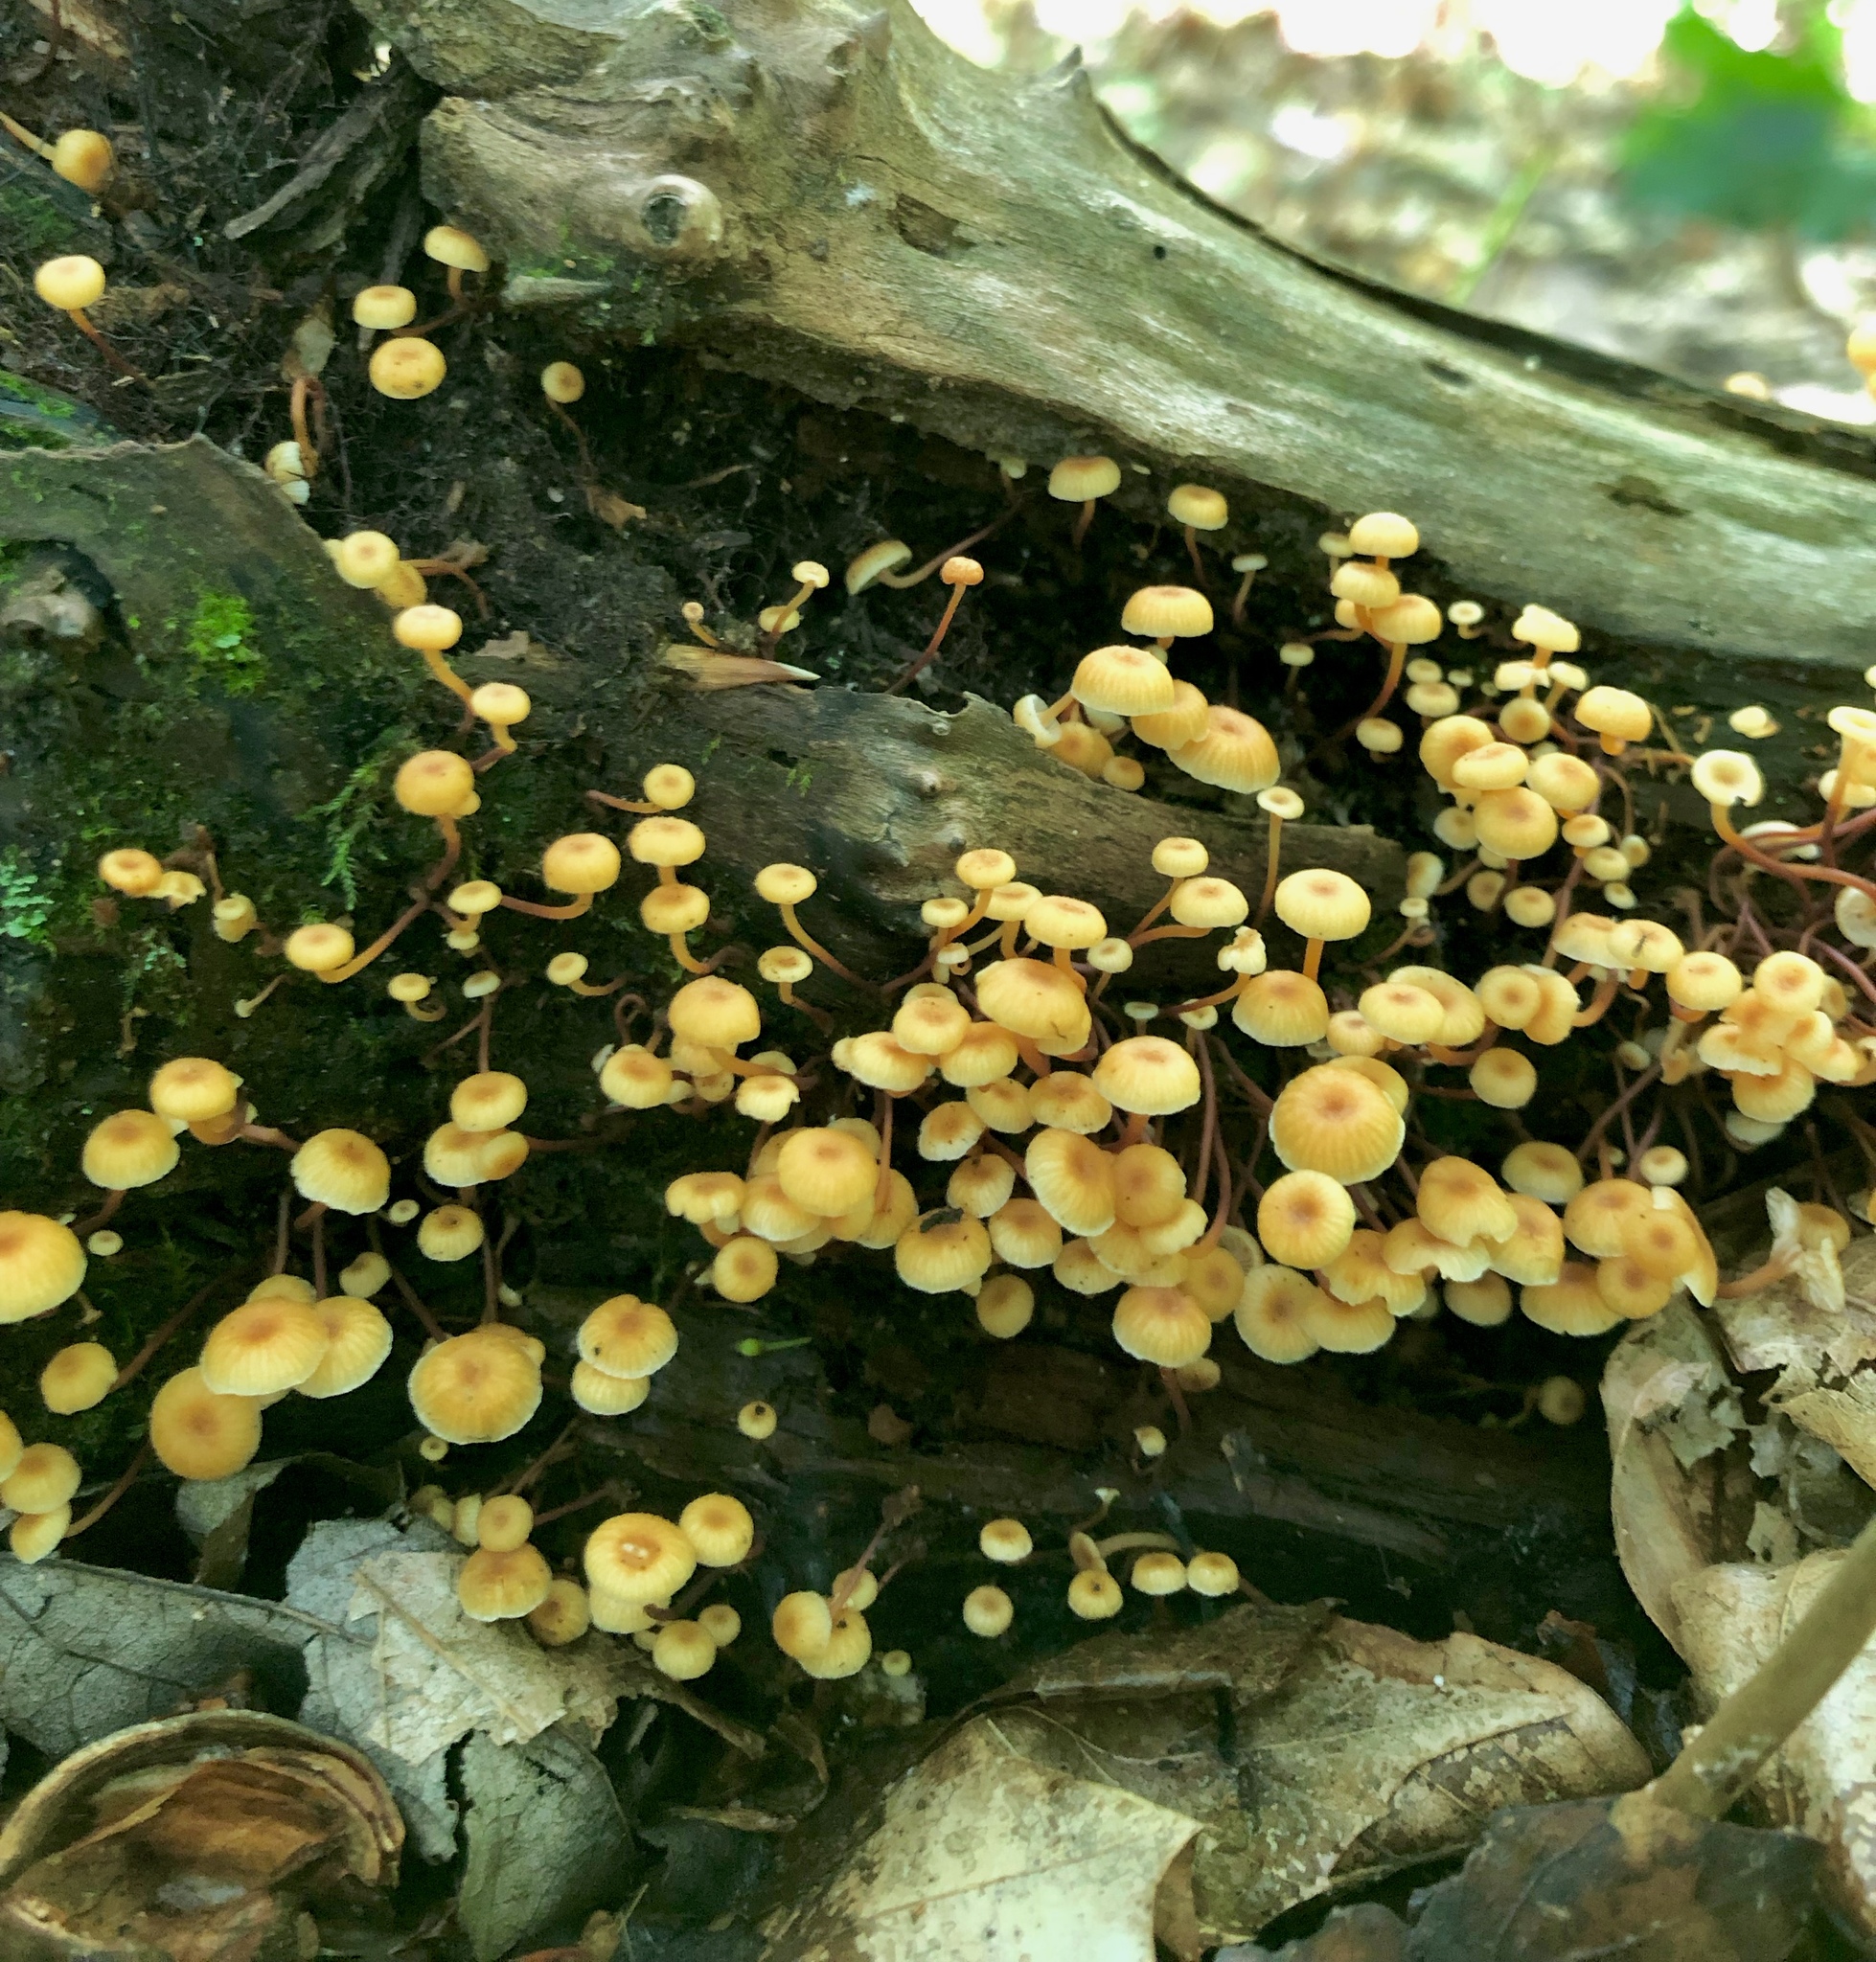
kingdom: Fungi
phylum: Basidiomycota
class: Agaricomycetes
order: Agaricales
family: Mycenaceae
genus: Xeromphalina
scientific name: Xeromphalina campanella
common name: Pinewood gingertail
